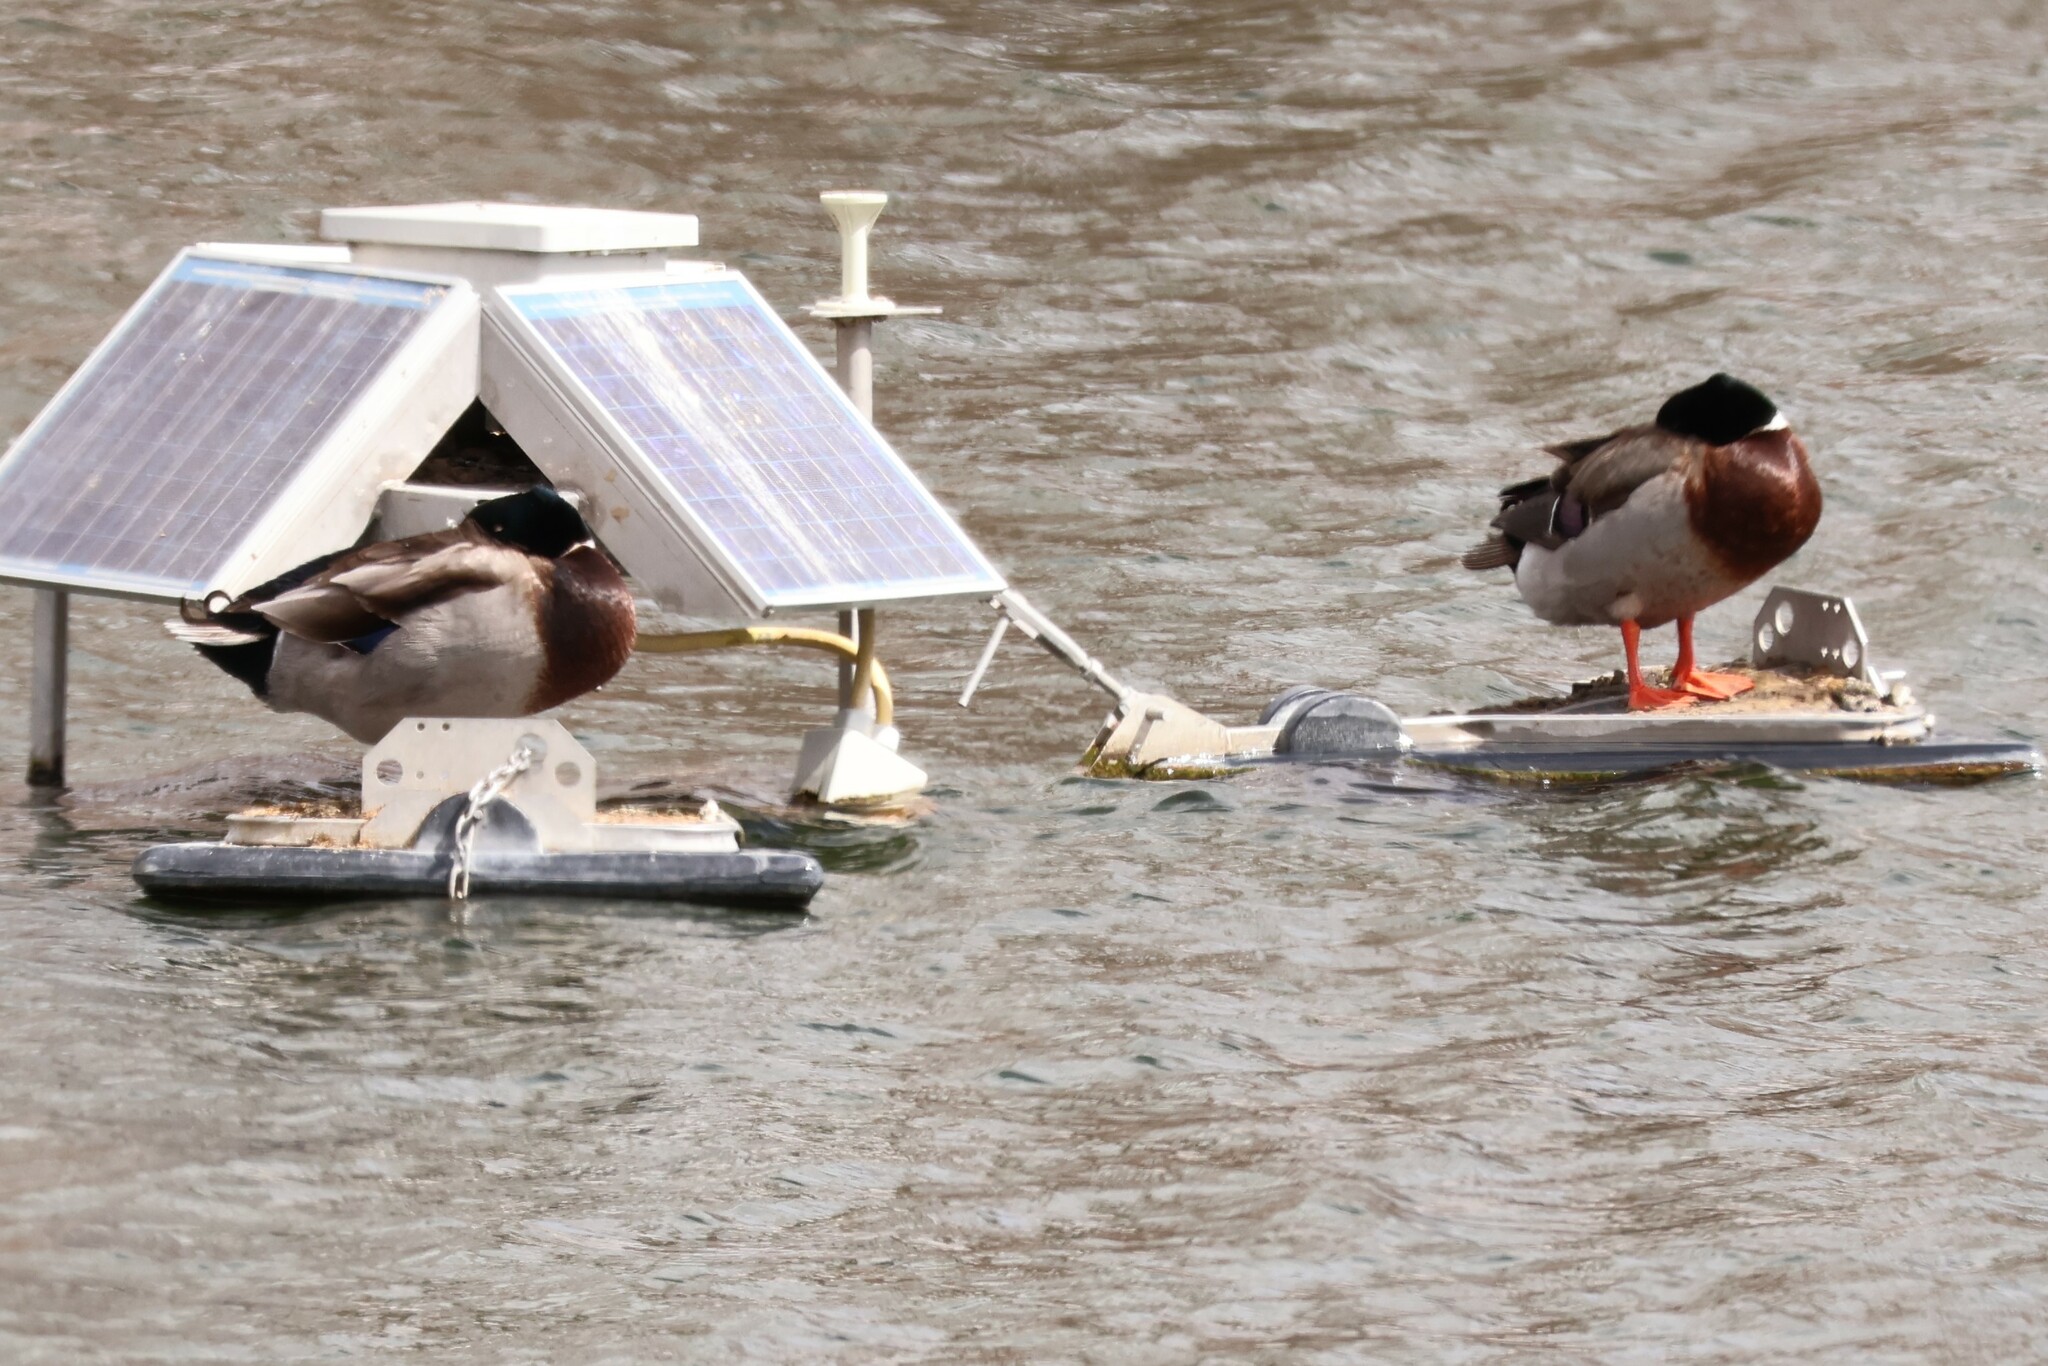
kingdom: Animalia
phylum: Chordata
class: Aves
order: Anseriformes
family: Anatidae
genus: Anas
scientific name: Anas platyrhynchos
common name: Mallard
